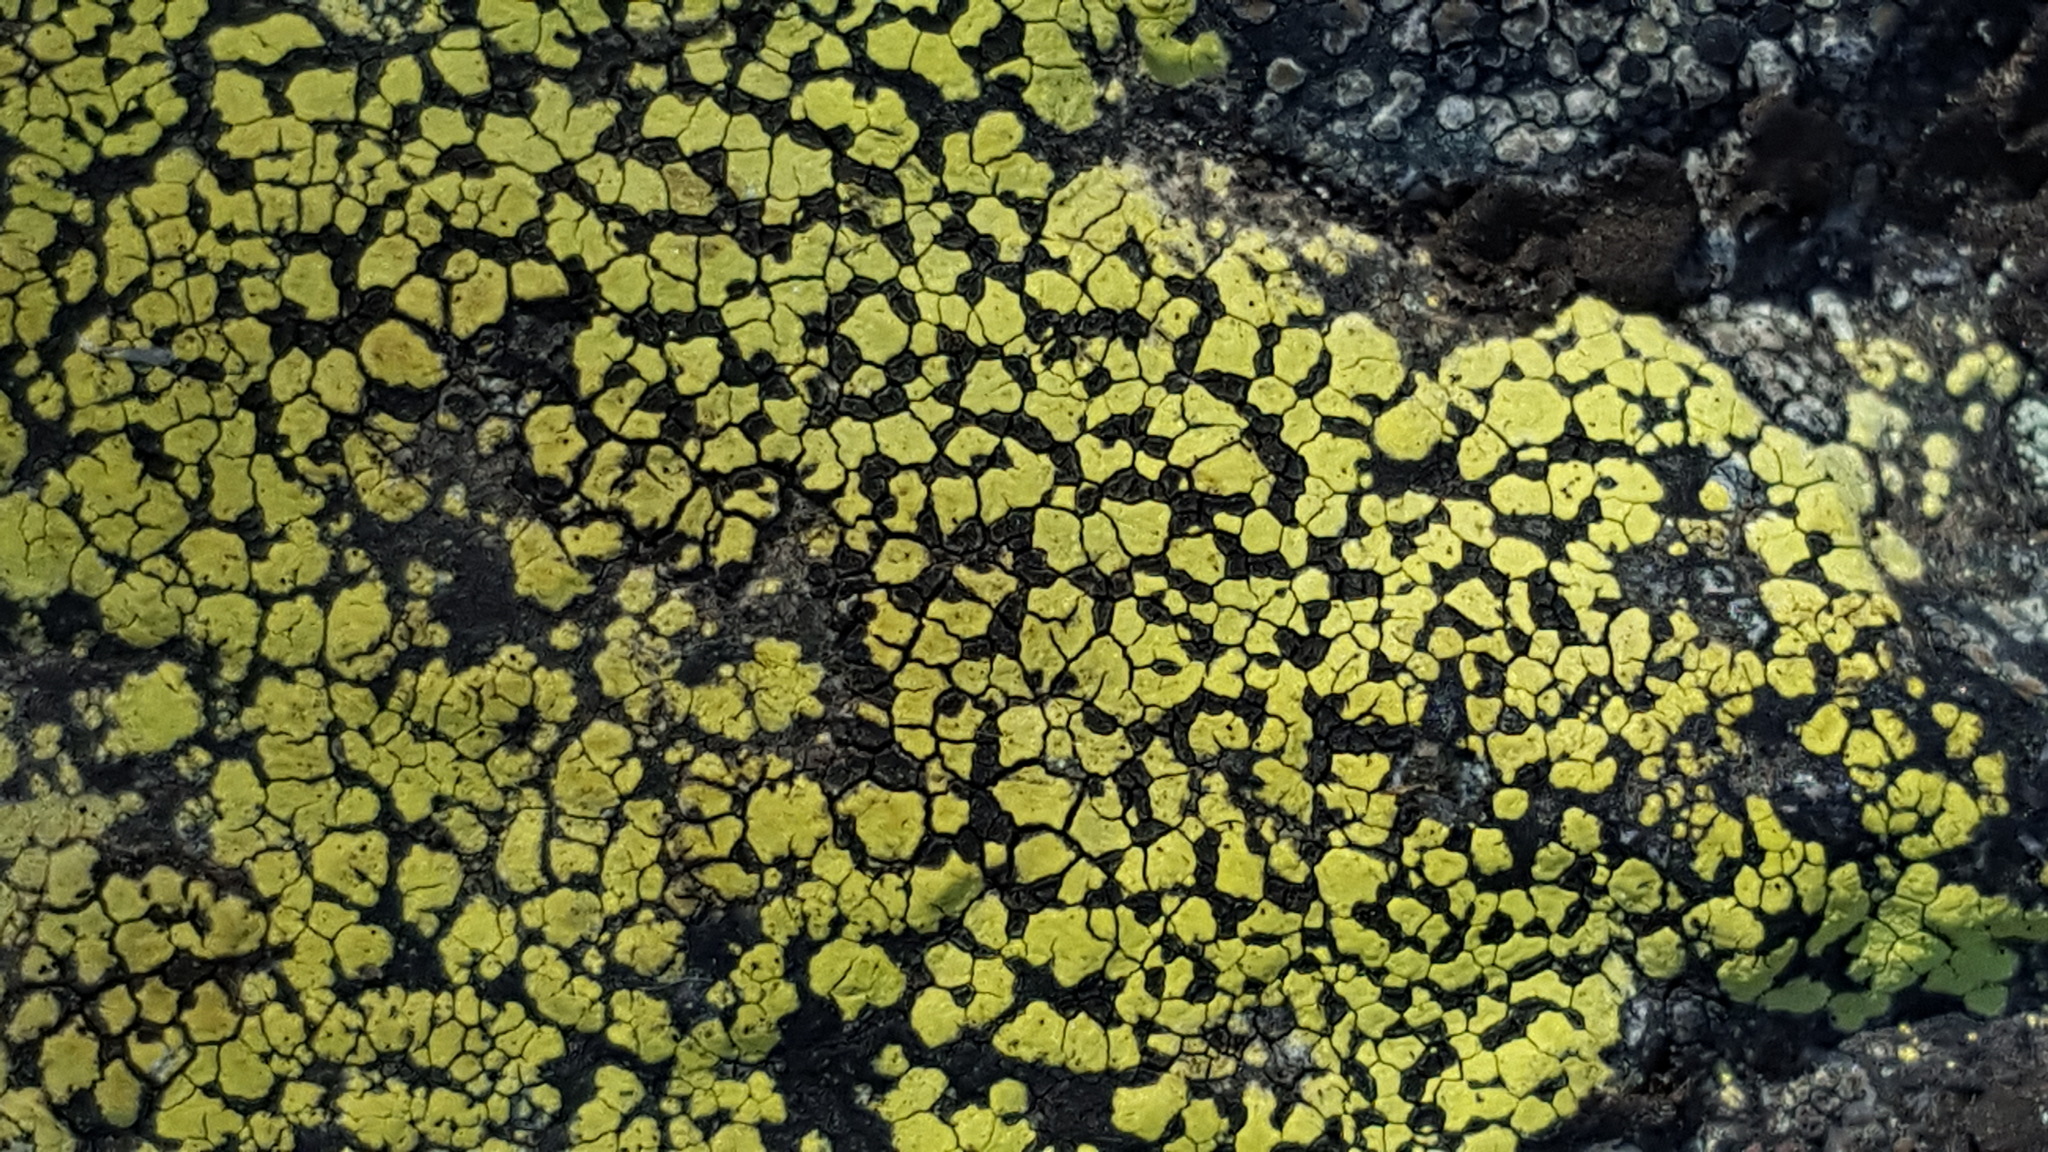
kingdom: Fungi
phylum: Ascomycota
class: Lecanoromycetes
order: Rhizocarpales
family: Rhizocarpaceae
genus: Rhizocarpon
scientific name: Rhizocarpon geographicum
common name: Yellow map lichen
